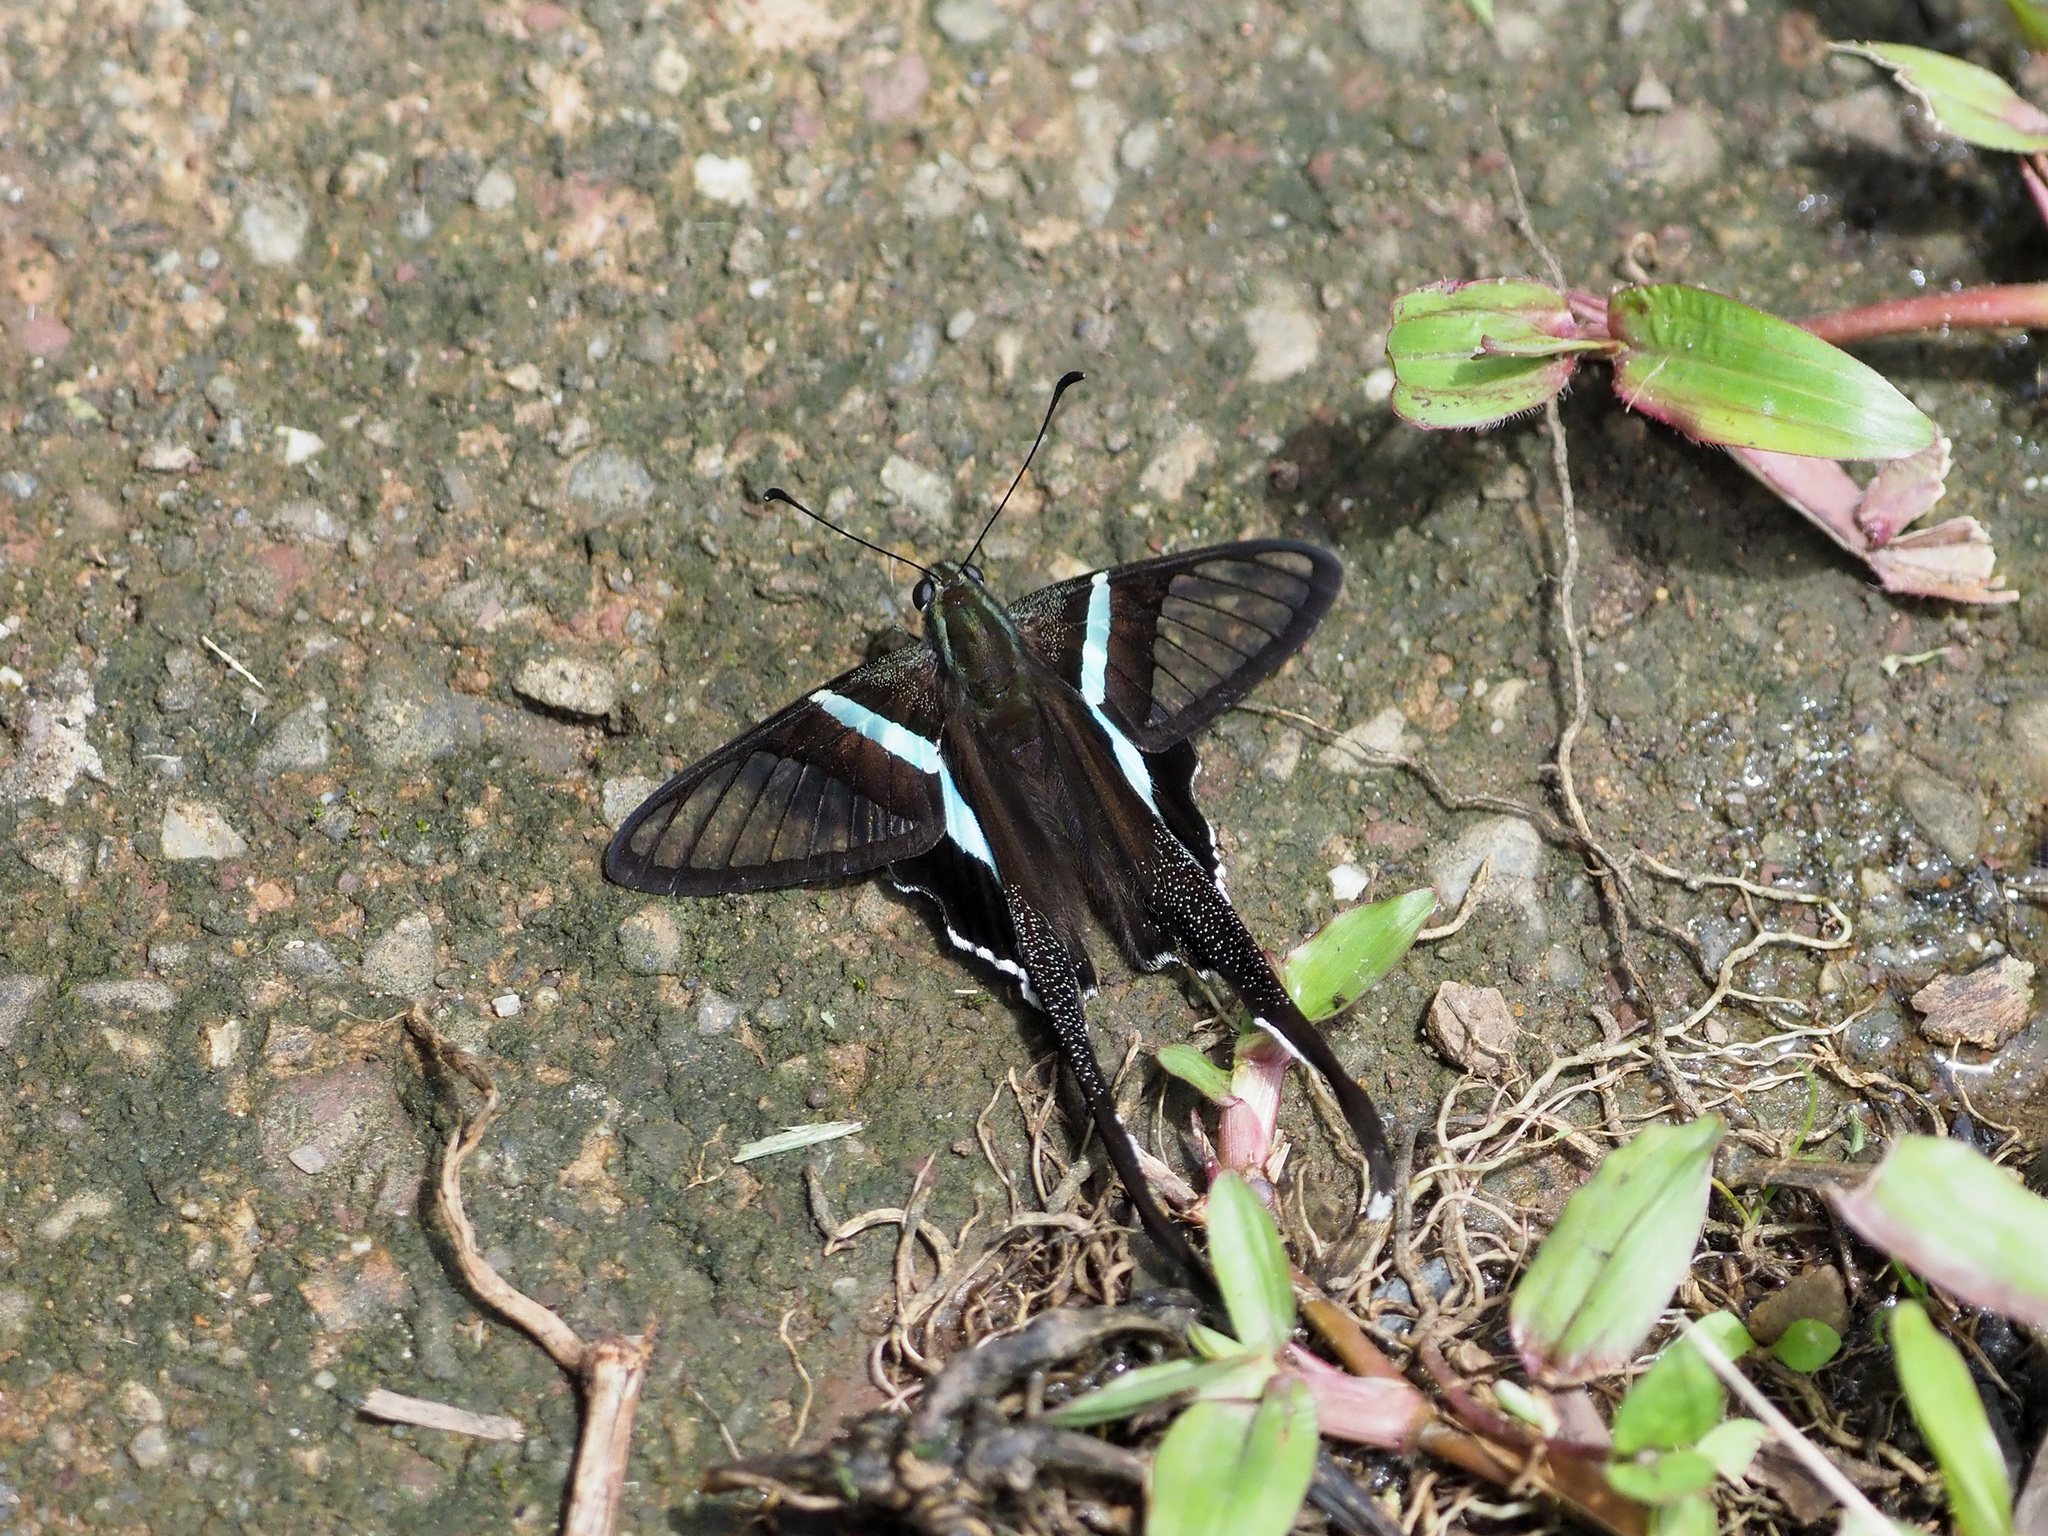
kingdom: Animalia
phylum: Arthropoda
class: Insecta
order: Lepidoptera
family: Papilionidae
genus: Lamproptera
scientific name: Lamproptera meges
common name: Green dragontail
